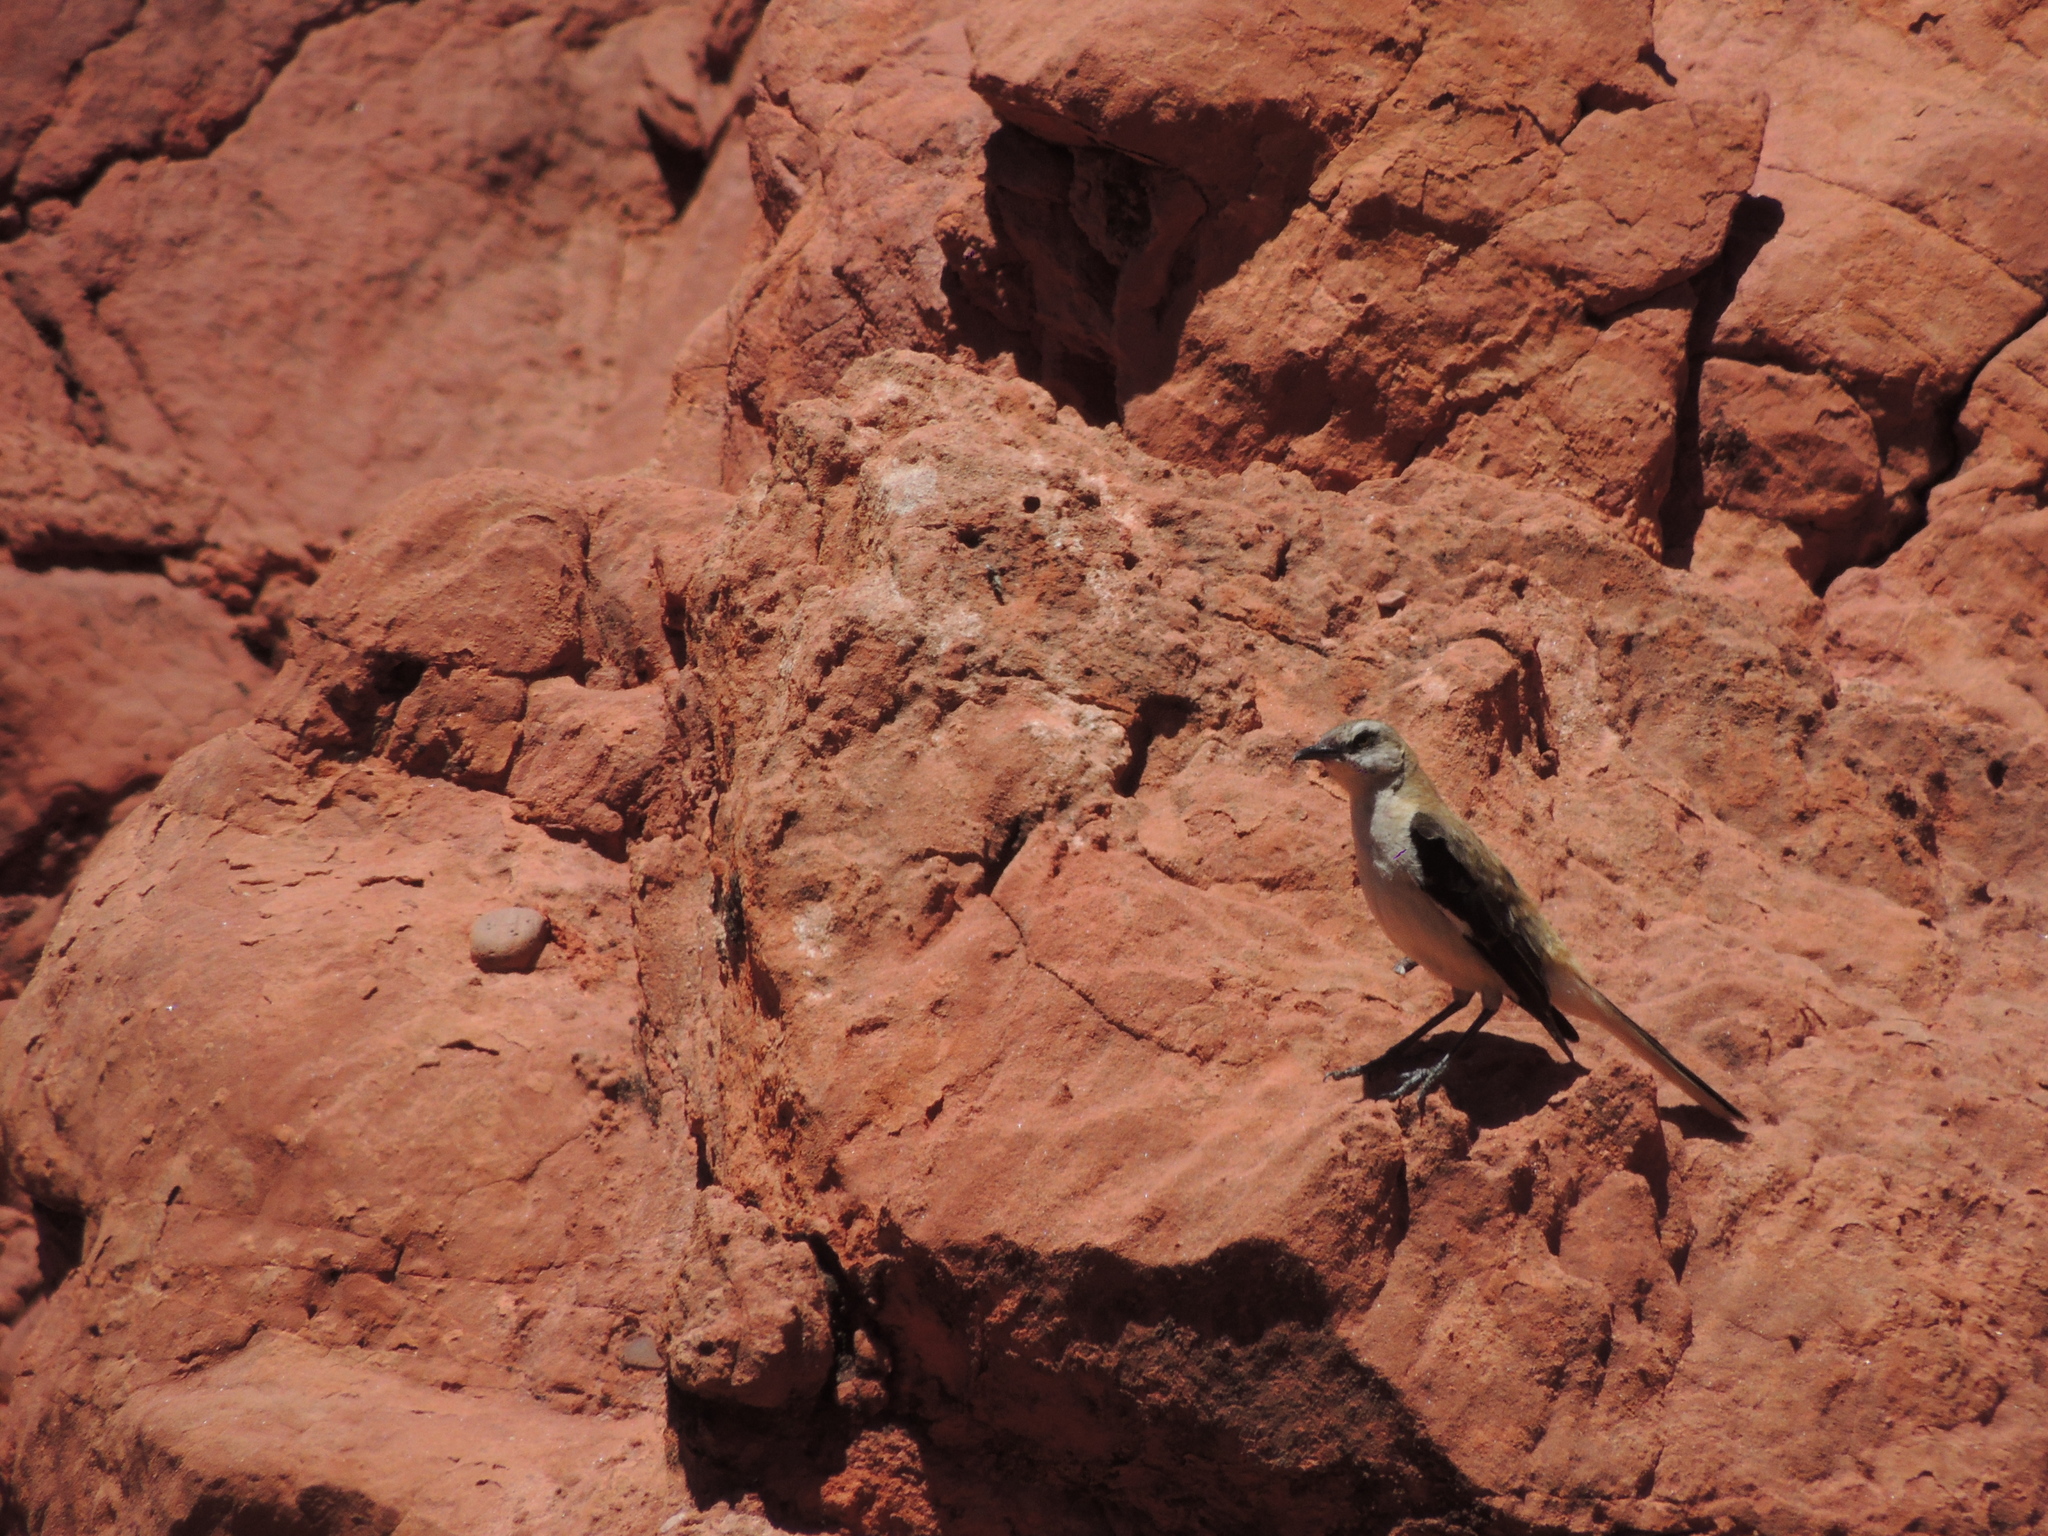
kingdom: Animalia
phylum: Chordata
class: Aves
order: Passeriformes
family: Mimidae
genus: Mimus
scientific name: Mimus dorsalis
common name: Brown-backed mockingbird
